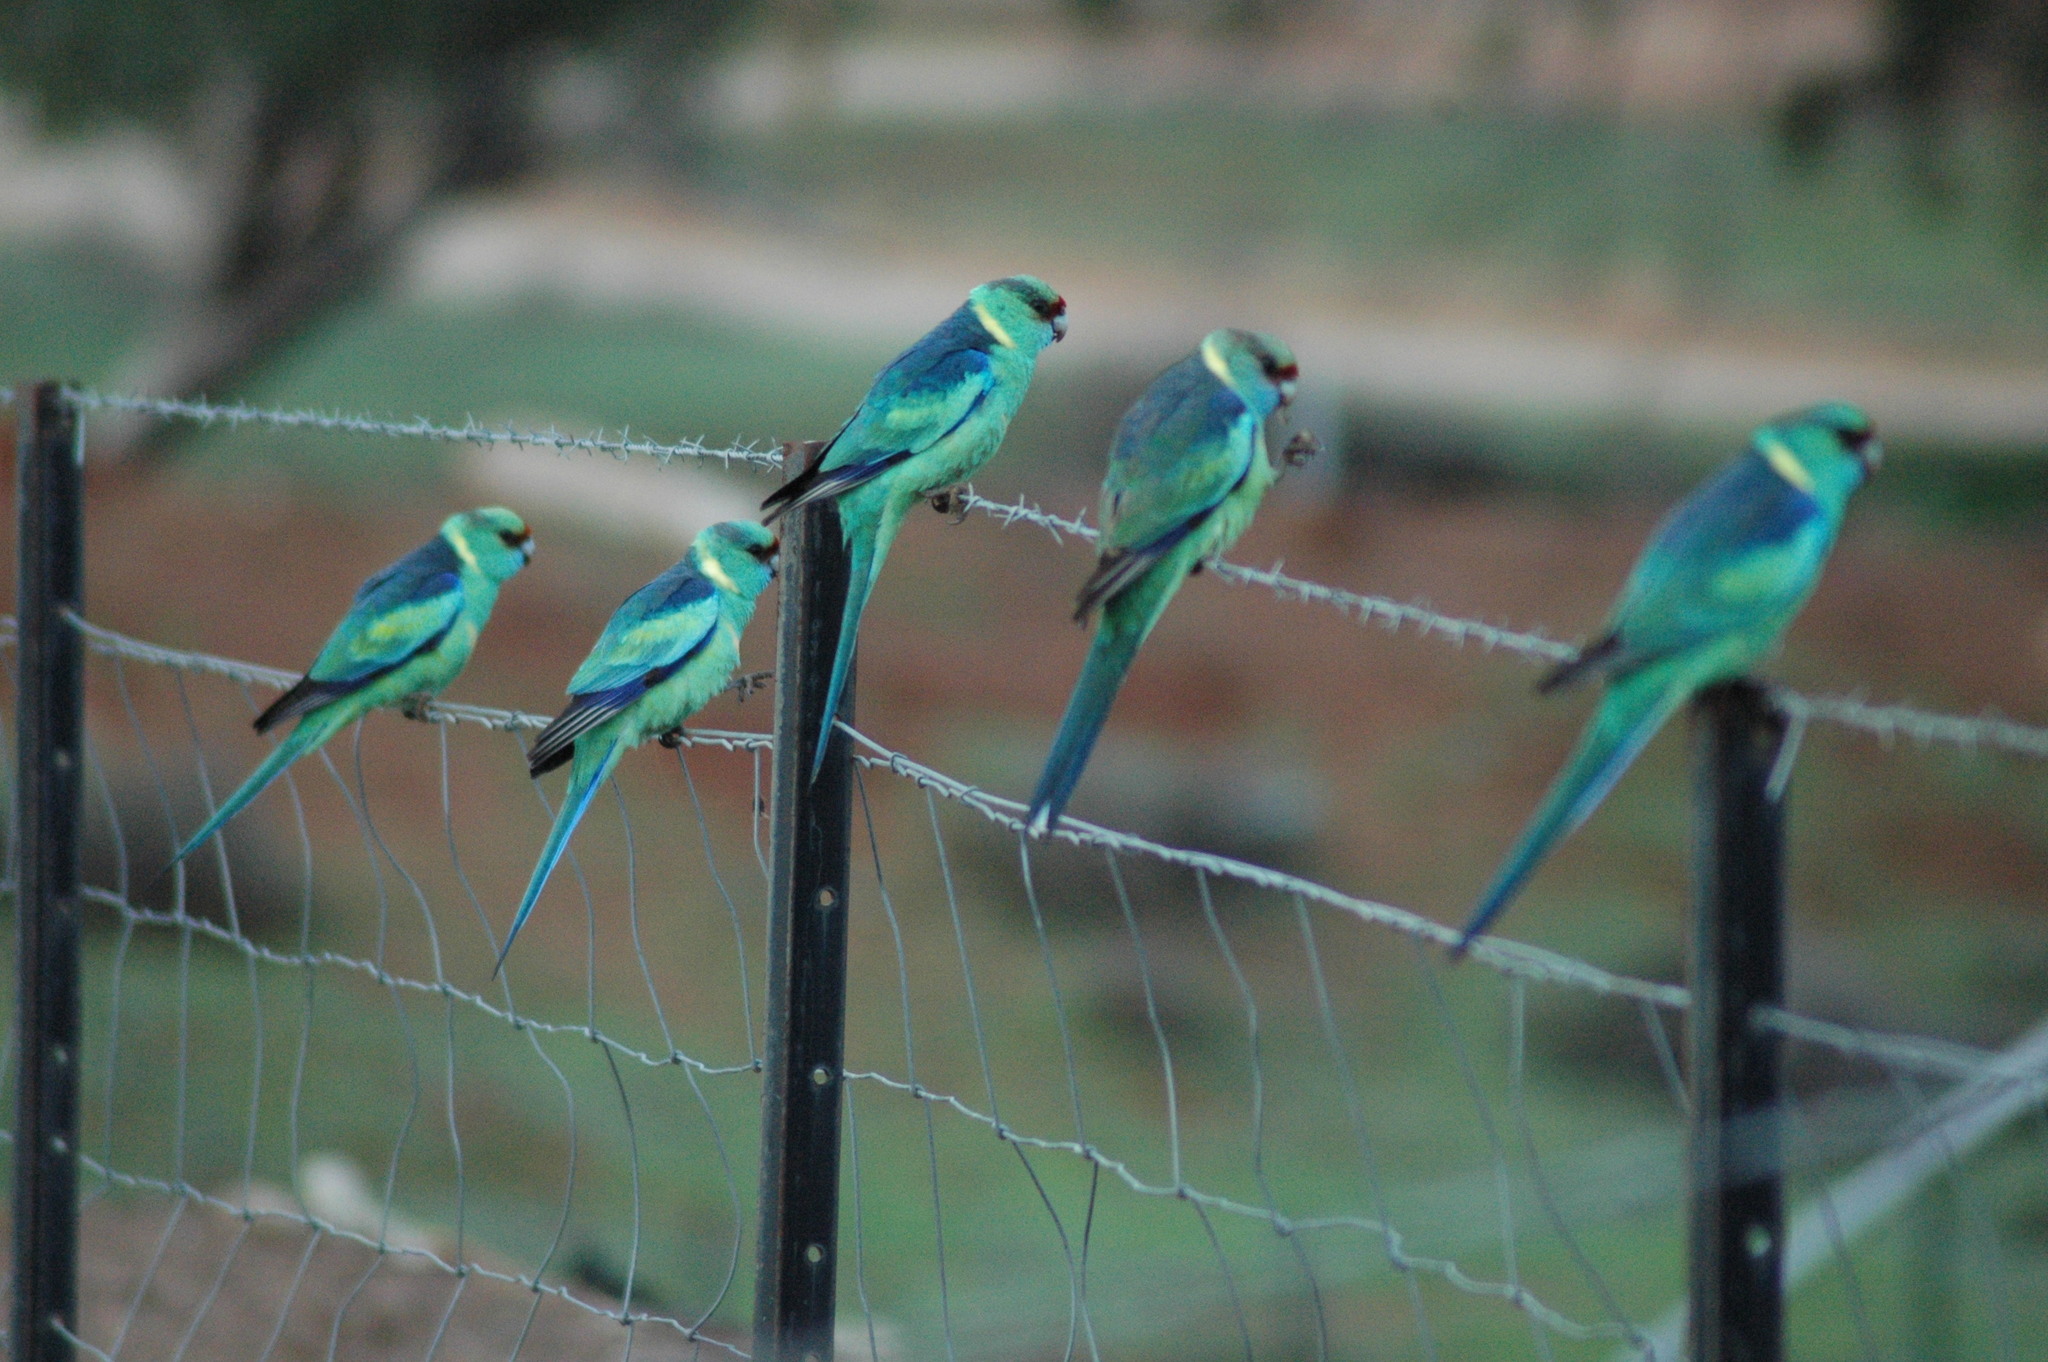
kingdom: Animalia
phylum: Chordata
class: Aves
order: Psittaciformes
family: Psittacidae
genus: Barnardius
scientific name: Barnardius zonarius
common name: Australian ringneck
